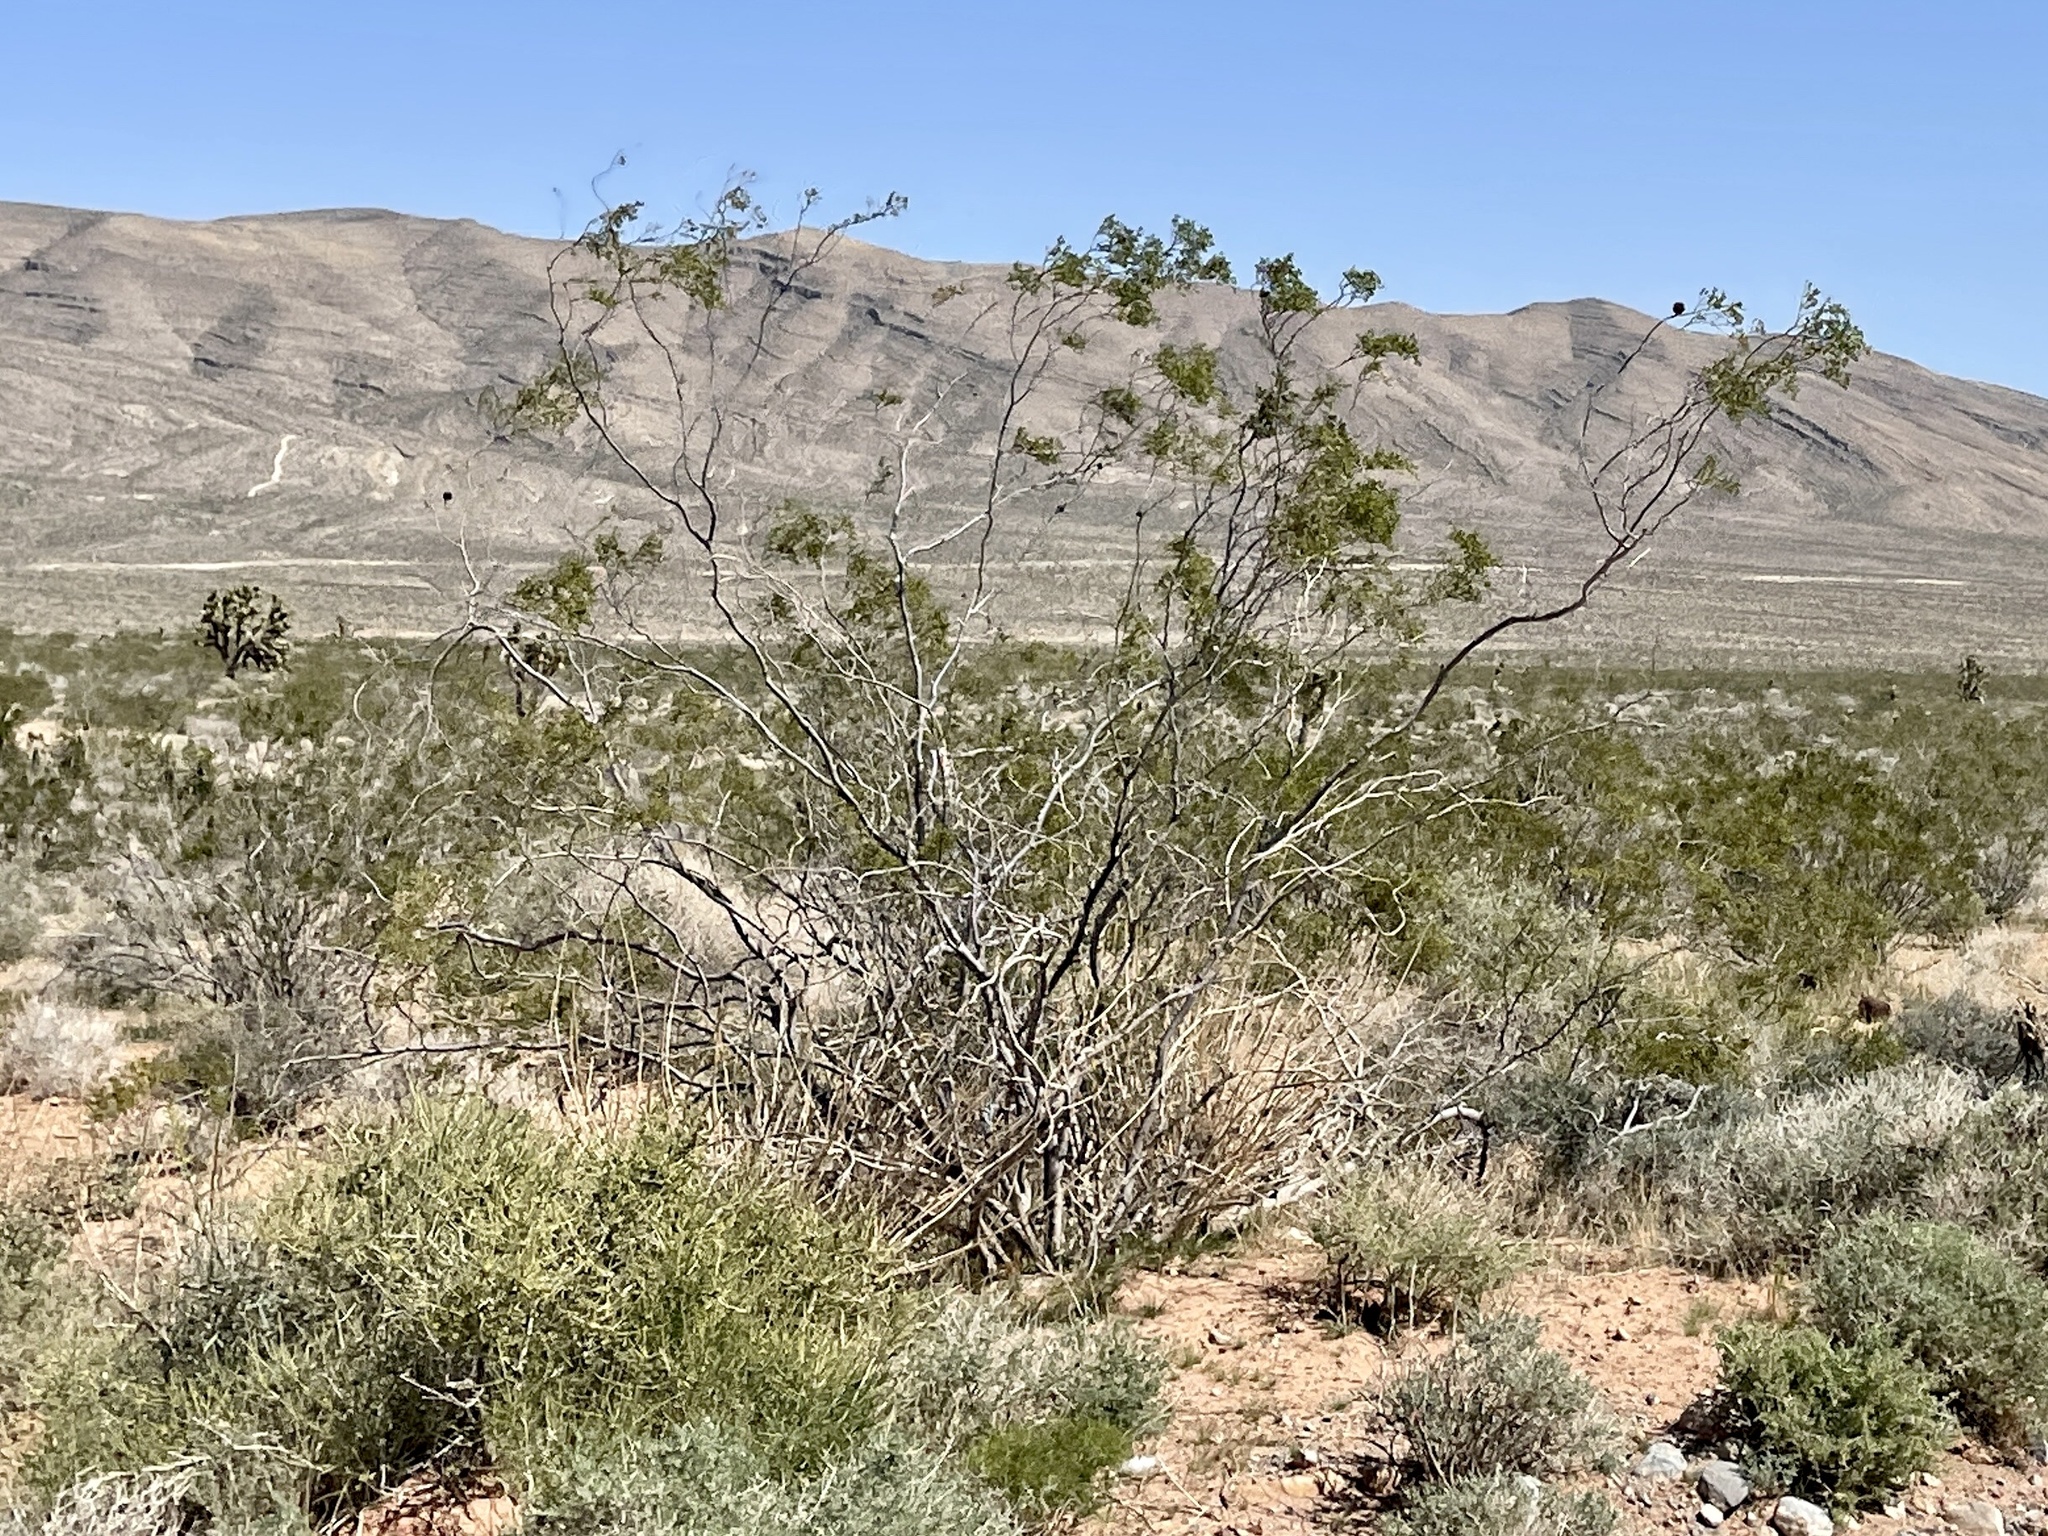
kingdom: Plantae
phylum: Tracheophyta
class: Magnoliopsida
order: Zygophyllales
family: Zygophyllaceae
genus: Larrea
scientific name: Larrea tridentata
